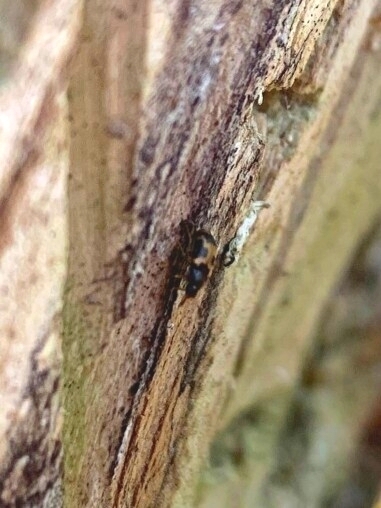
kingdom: Animalia
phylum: Arthropoda
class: Insecta
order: Coleoptera
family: Mycetophagidae
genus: Mycetophagus
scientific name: Mycetophagus flexuosus
